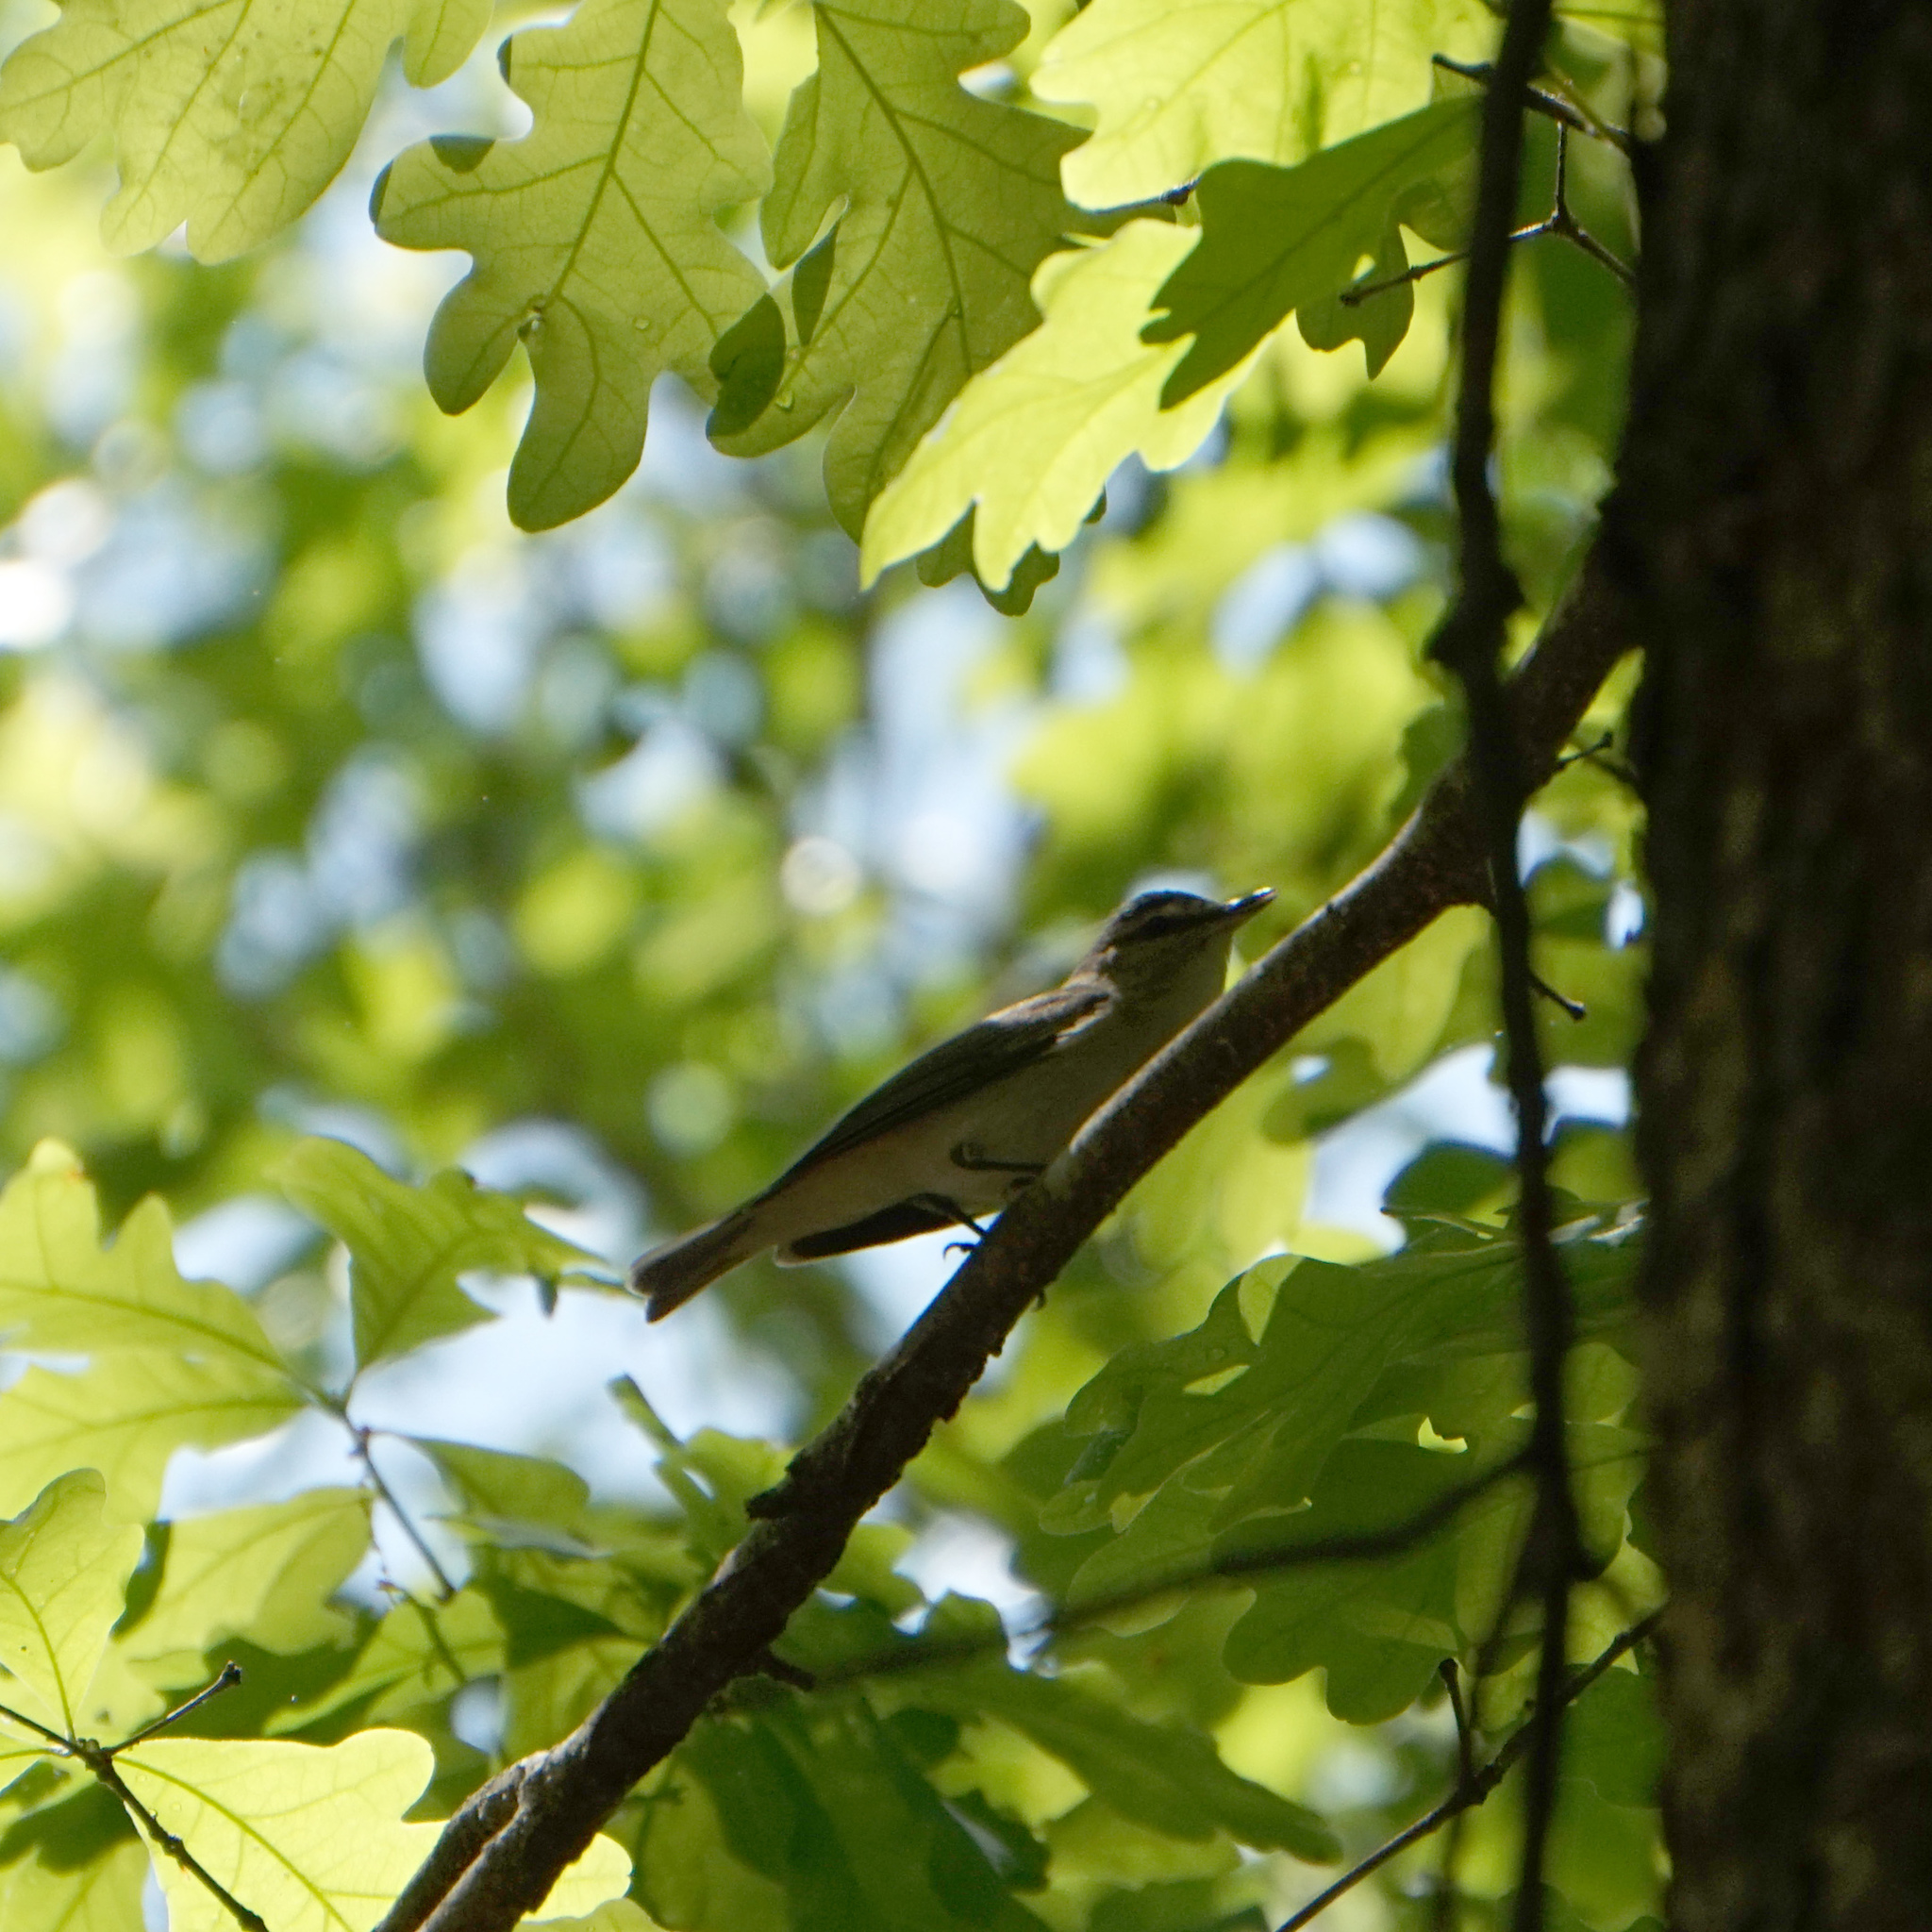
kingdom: Animalia
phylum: Chordata
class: Aves
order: Passeriformes
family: Vireonidae
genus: Vireo
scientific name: Vireo olivaceus
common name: Red-eyed vireo
